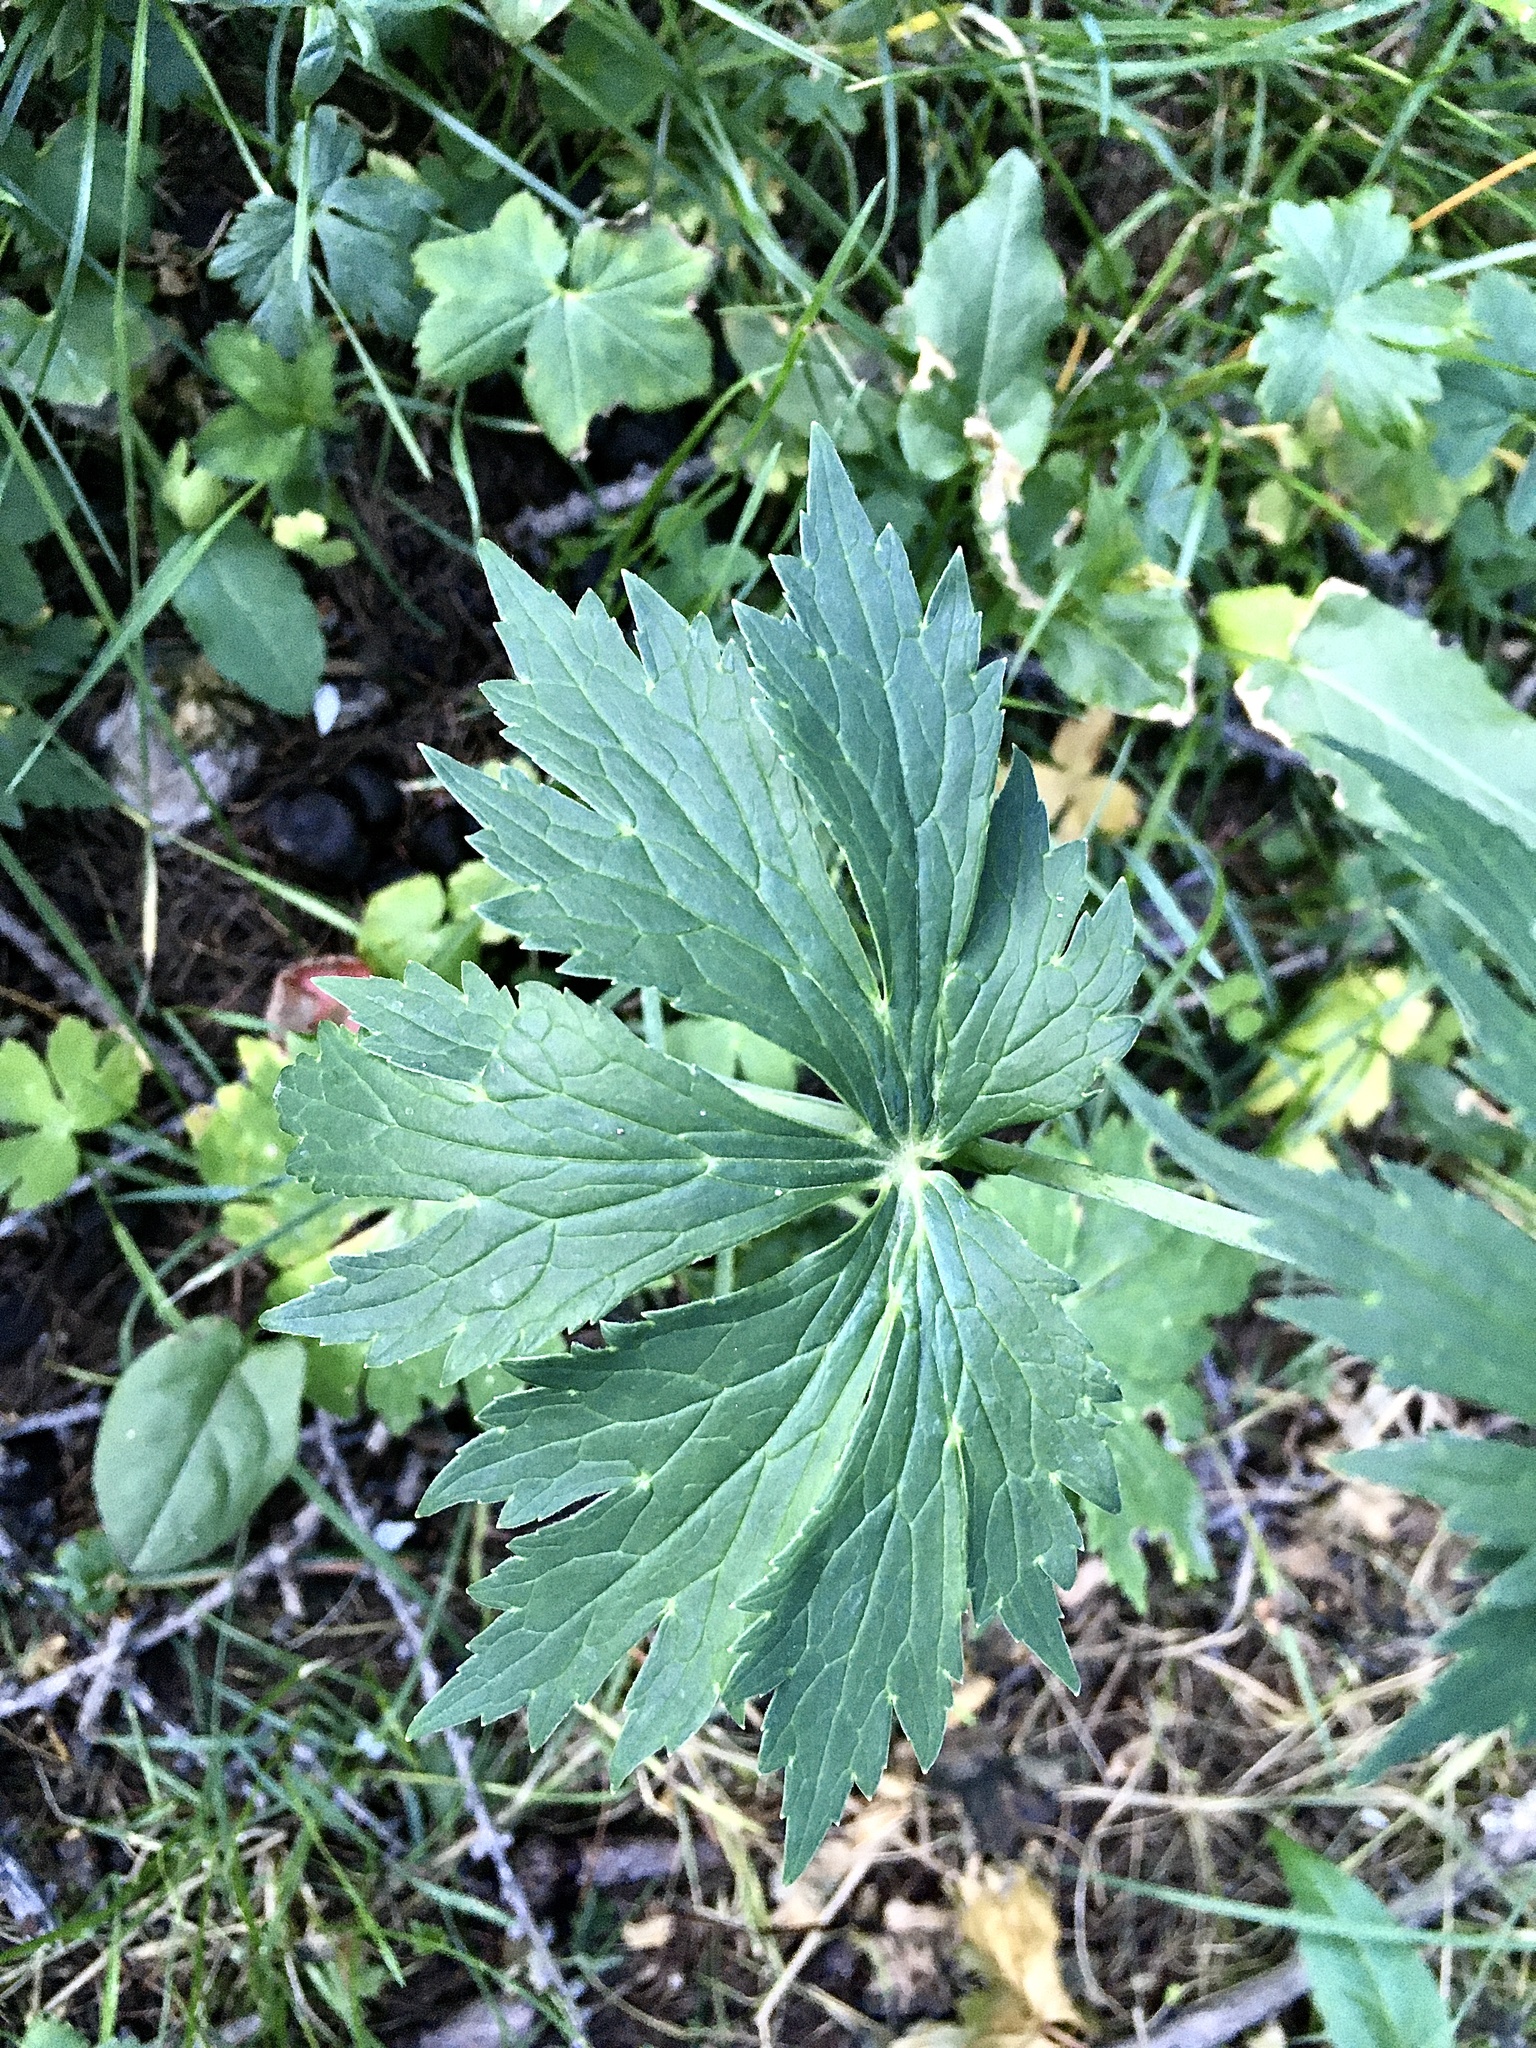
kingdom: Plantae
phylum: Tracheophyta
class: Magnoliopsida
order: Ranunculales
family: Ranunculaceae
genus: Ranunculus
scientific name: Ranunculus platanifolius
